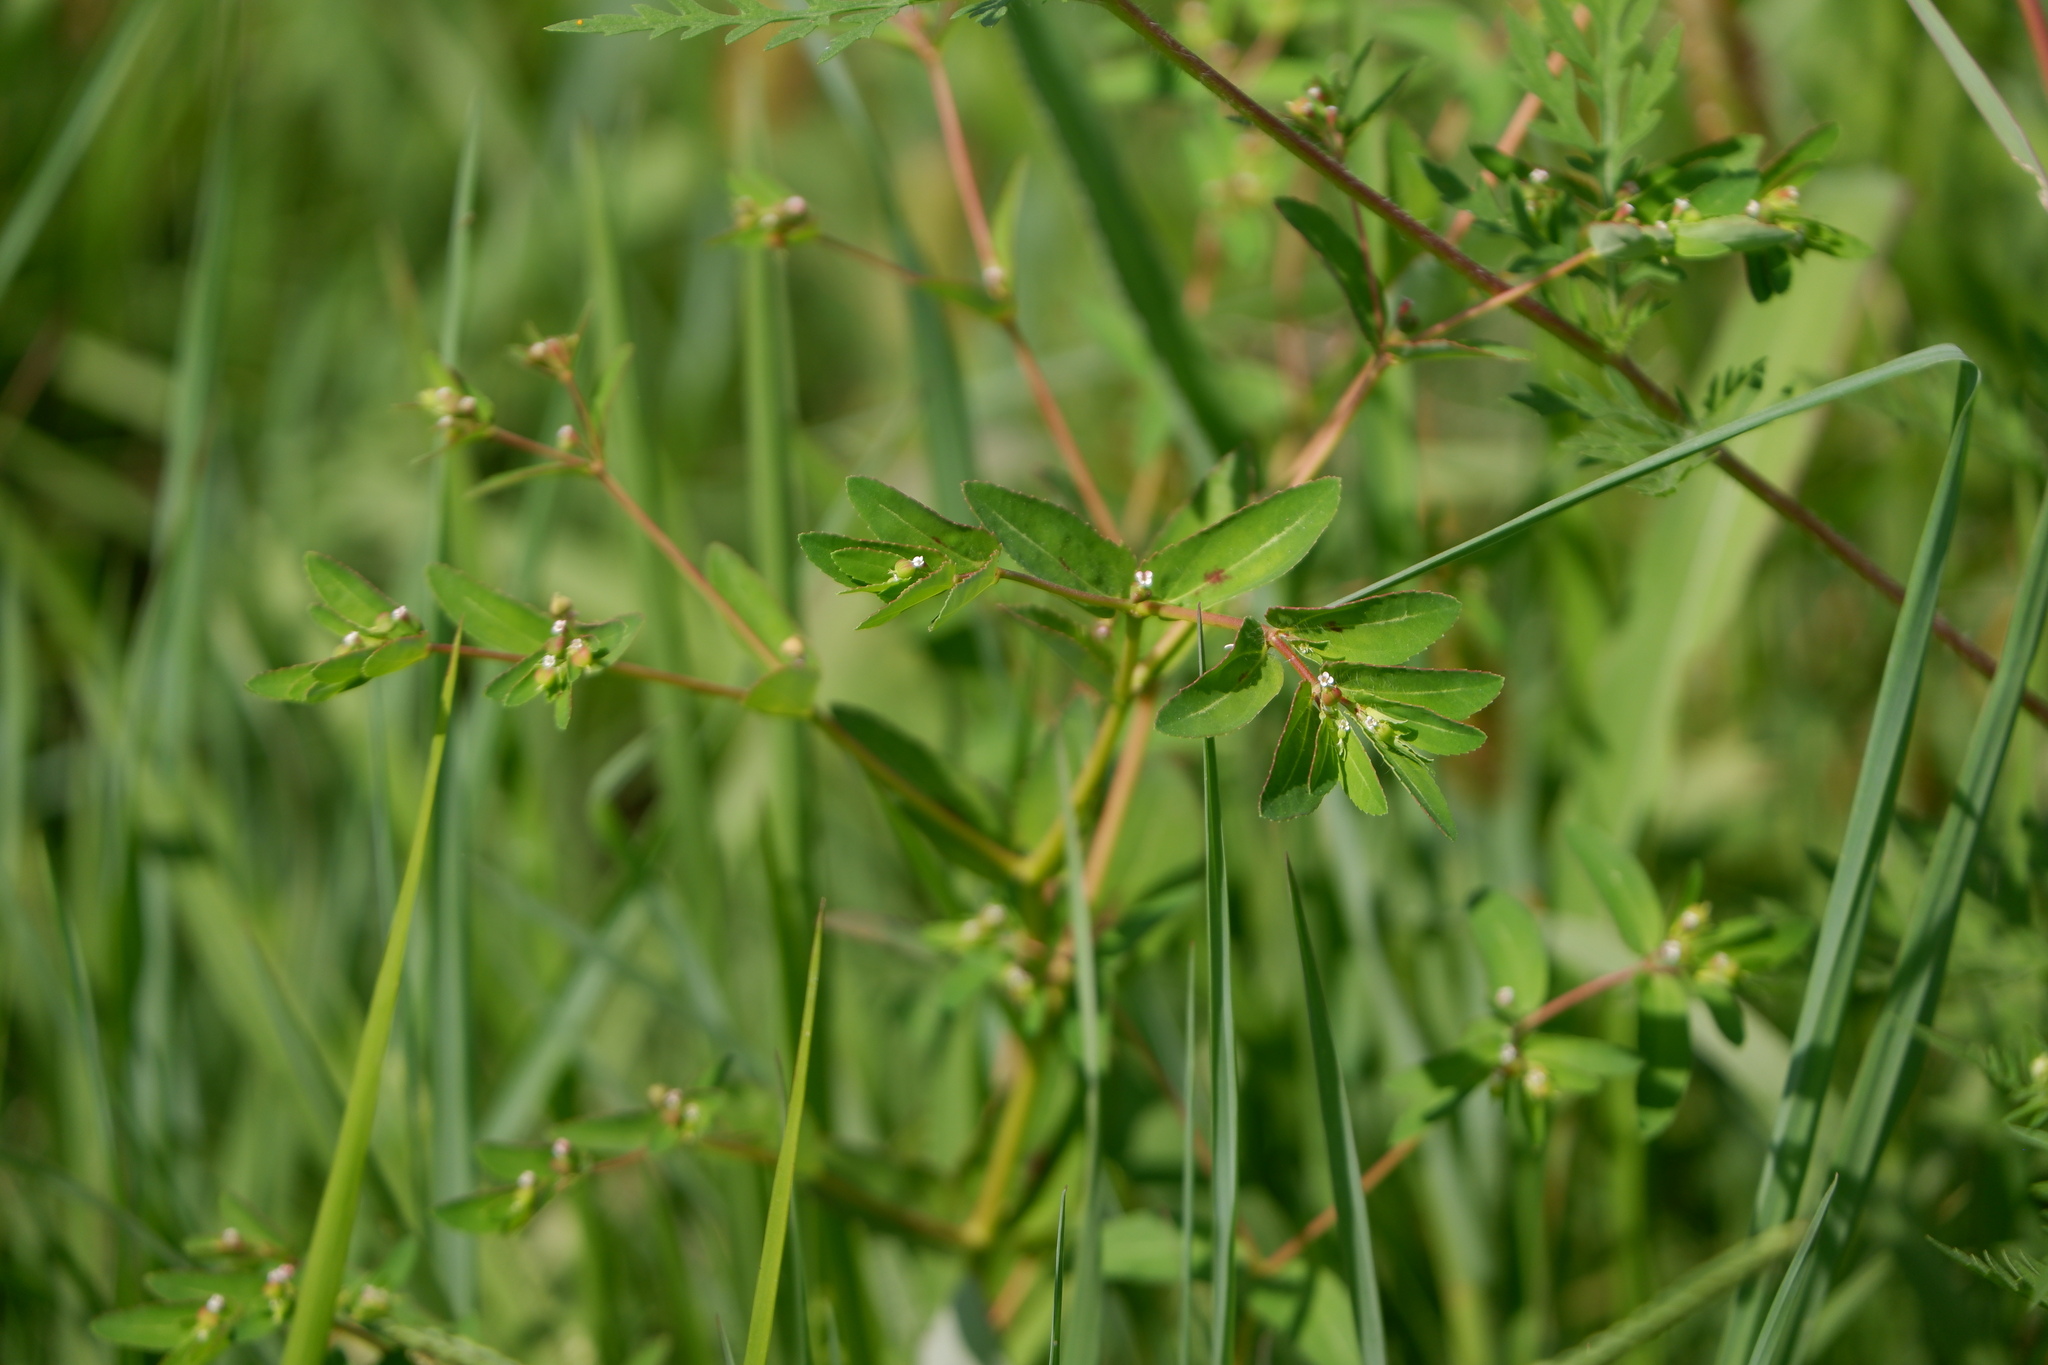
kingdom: Plantae
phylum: Tracheophyta
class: Magnoliopsida
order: Malpighiales
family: Euphorbiaceae
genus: Euphorbia
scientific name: Euphorbia nutans
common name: Eyebane
